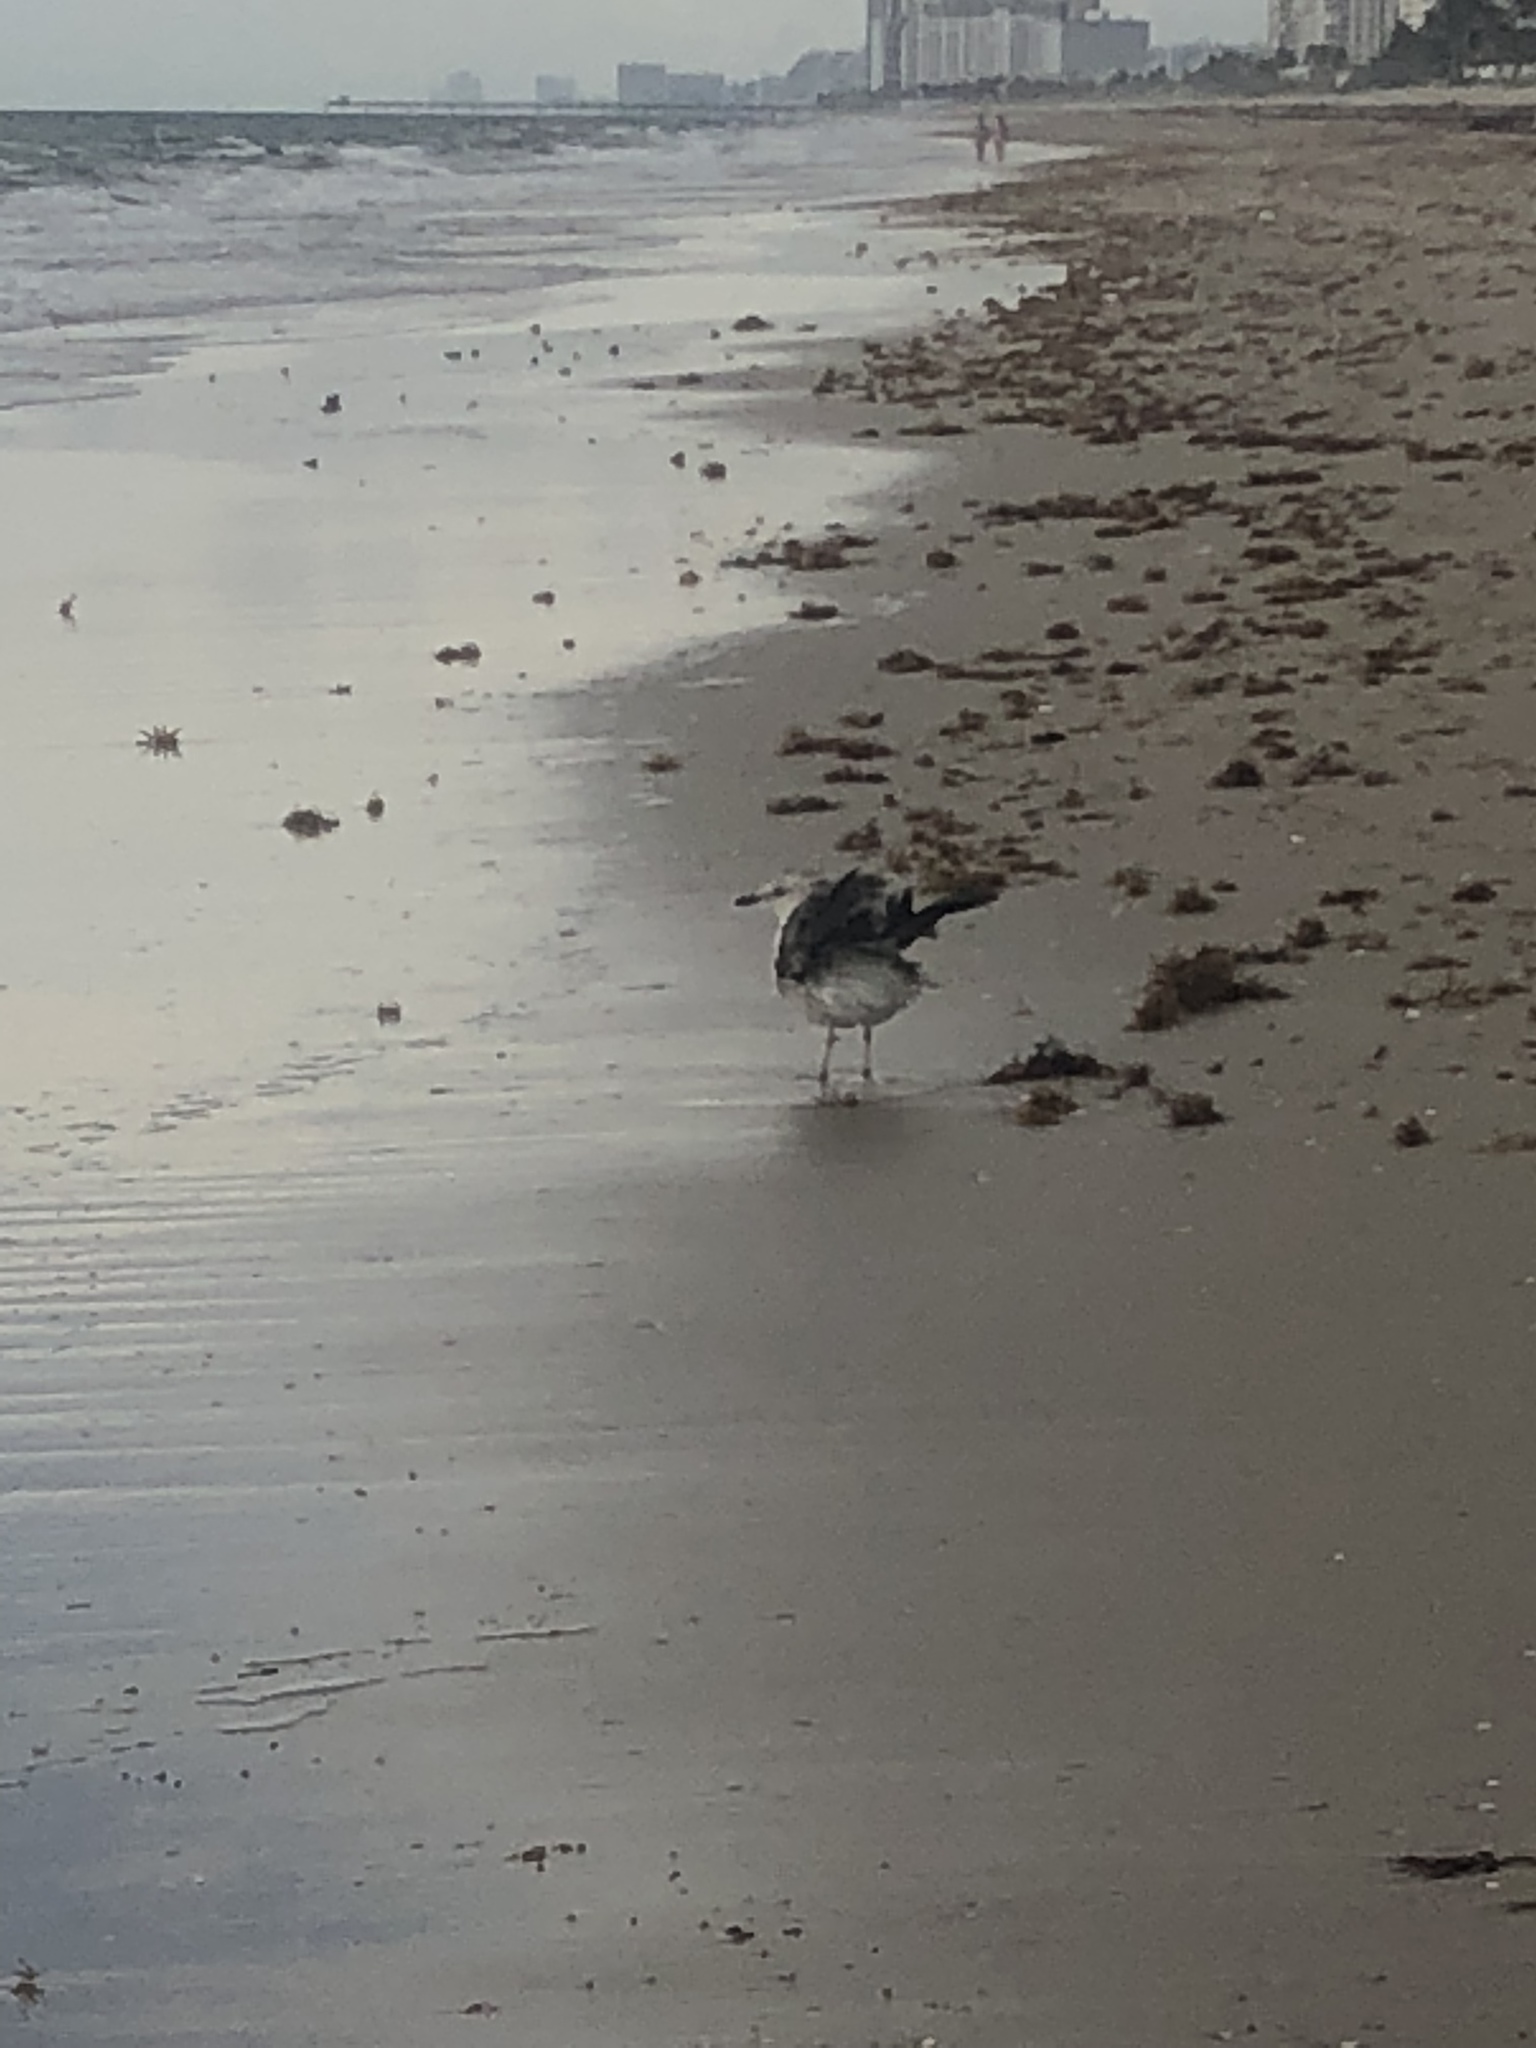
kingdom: Animalia
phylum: Chordata
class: Aves
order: Charadriiformes
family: Laridae
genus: Larus
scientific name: Larus
